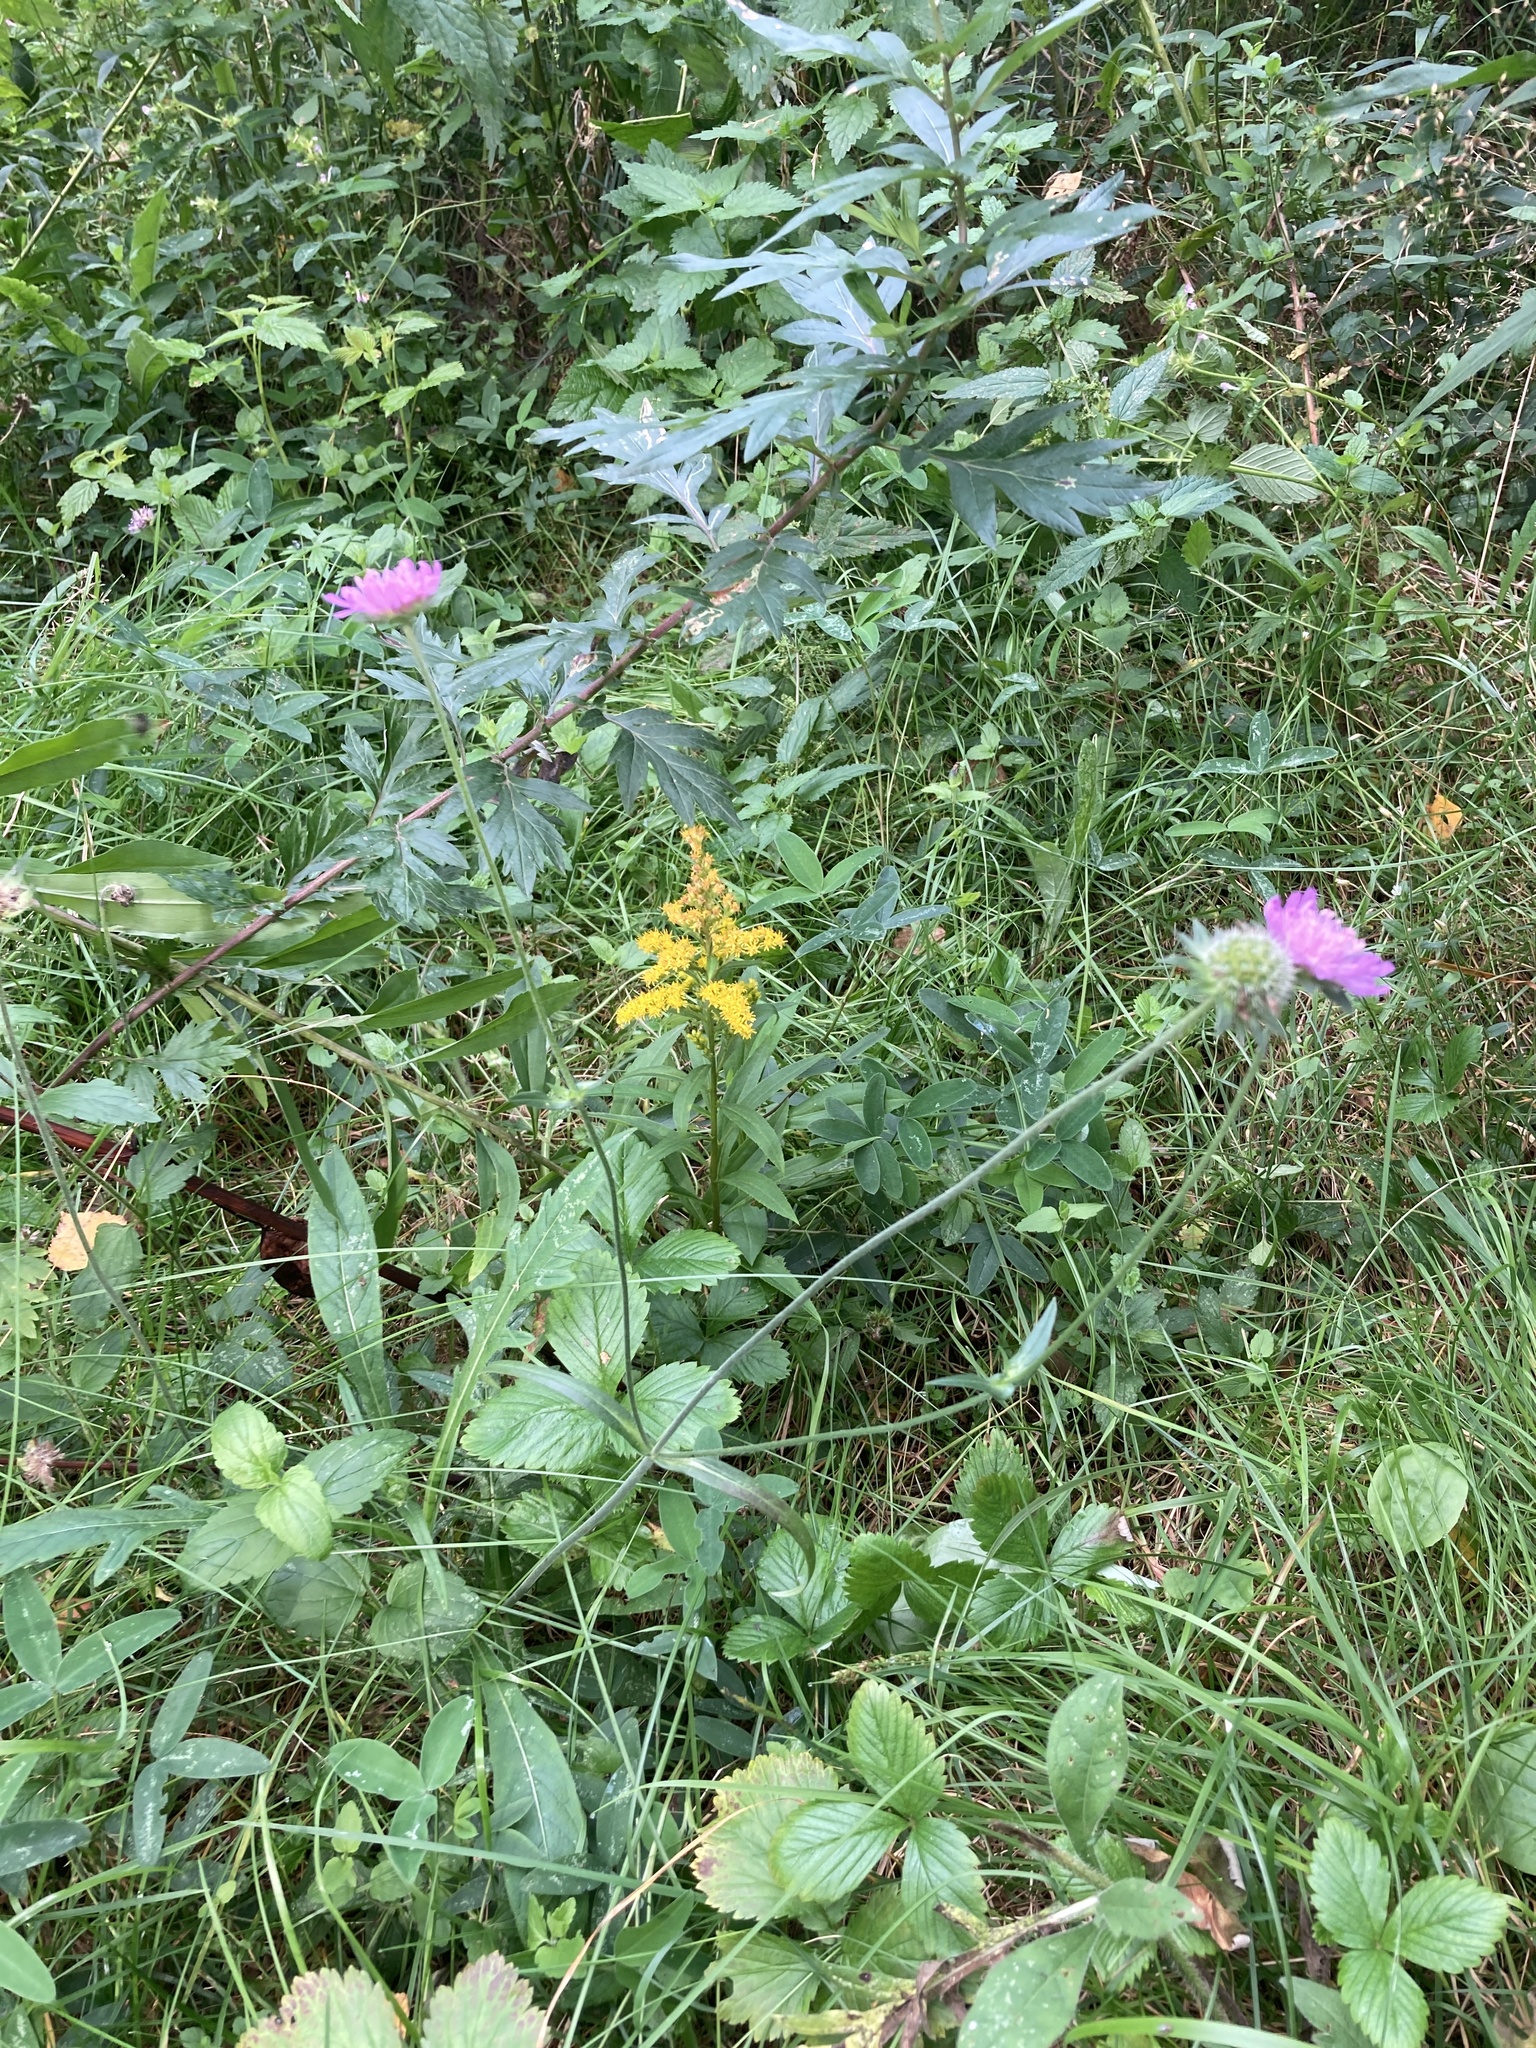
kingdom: Plantae
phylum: Tracheophyta
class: Magnoliopsida
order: Dipsacales
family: Caprifoliaceae
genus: Knautia
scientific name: Knautia arvensis
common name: Field scabiosa
